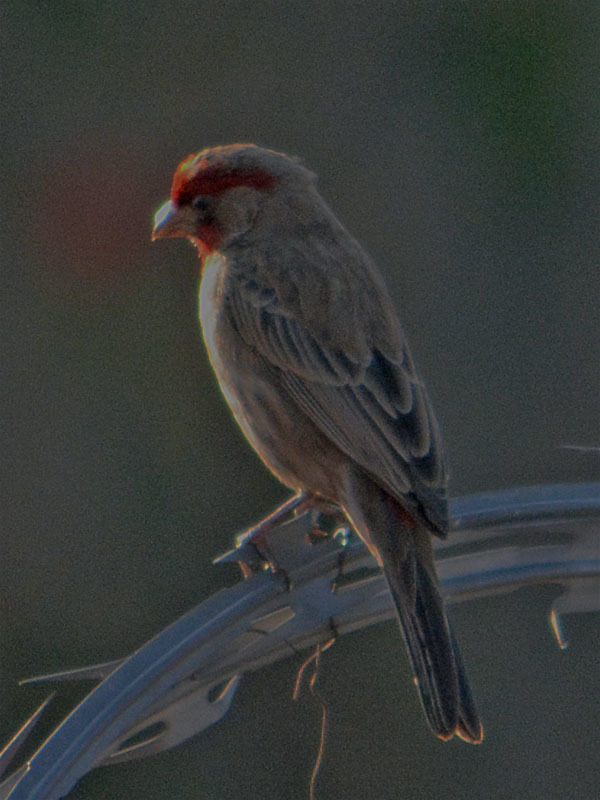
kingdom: Animalia
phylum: Chordata
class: Aves
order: Passeriformes
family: Fringillidae
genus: Haemorhous
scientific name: Haemorhous mexicanus
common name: House finch
